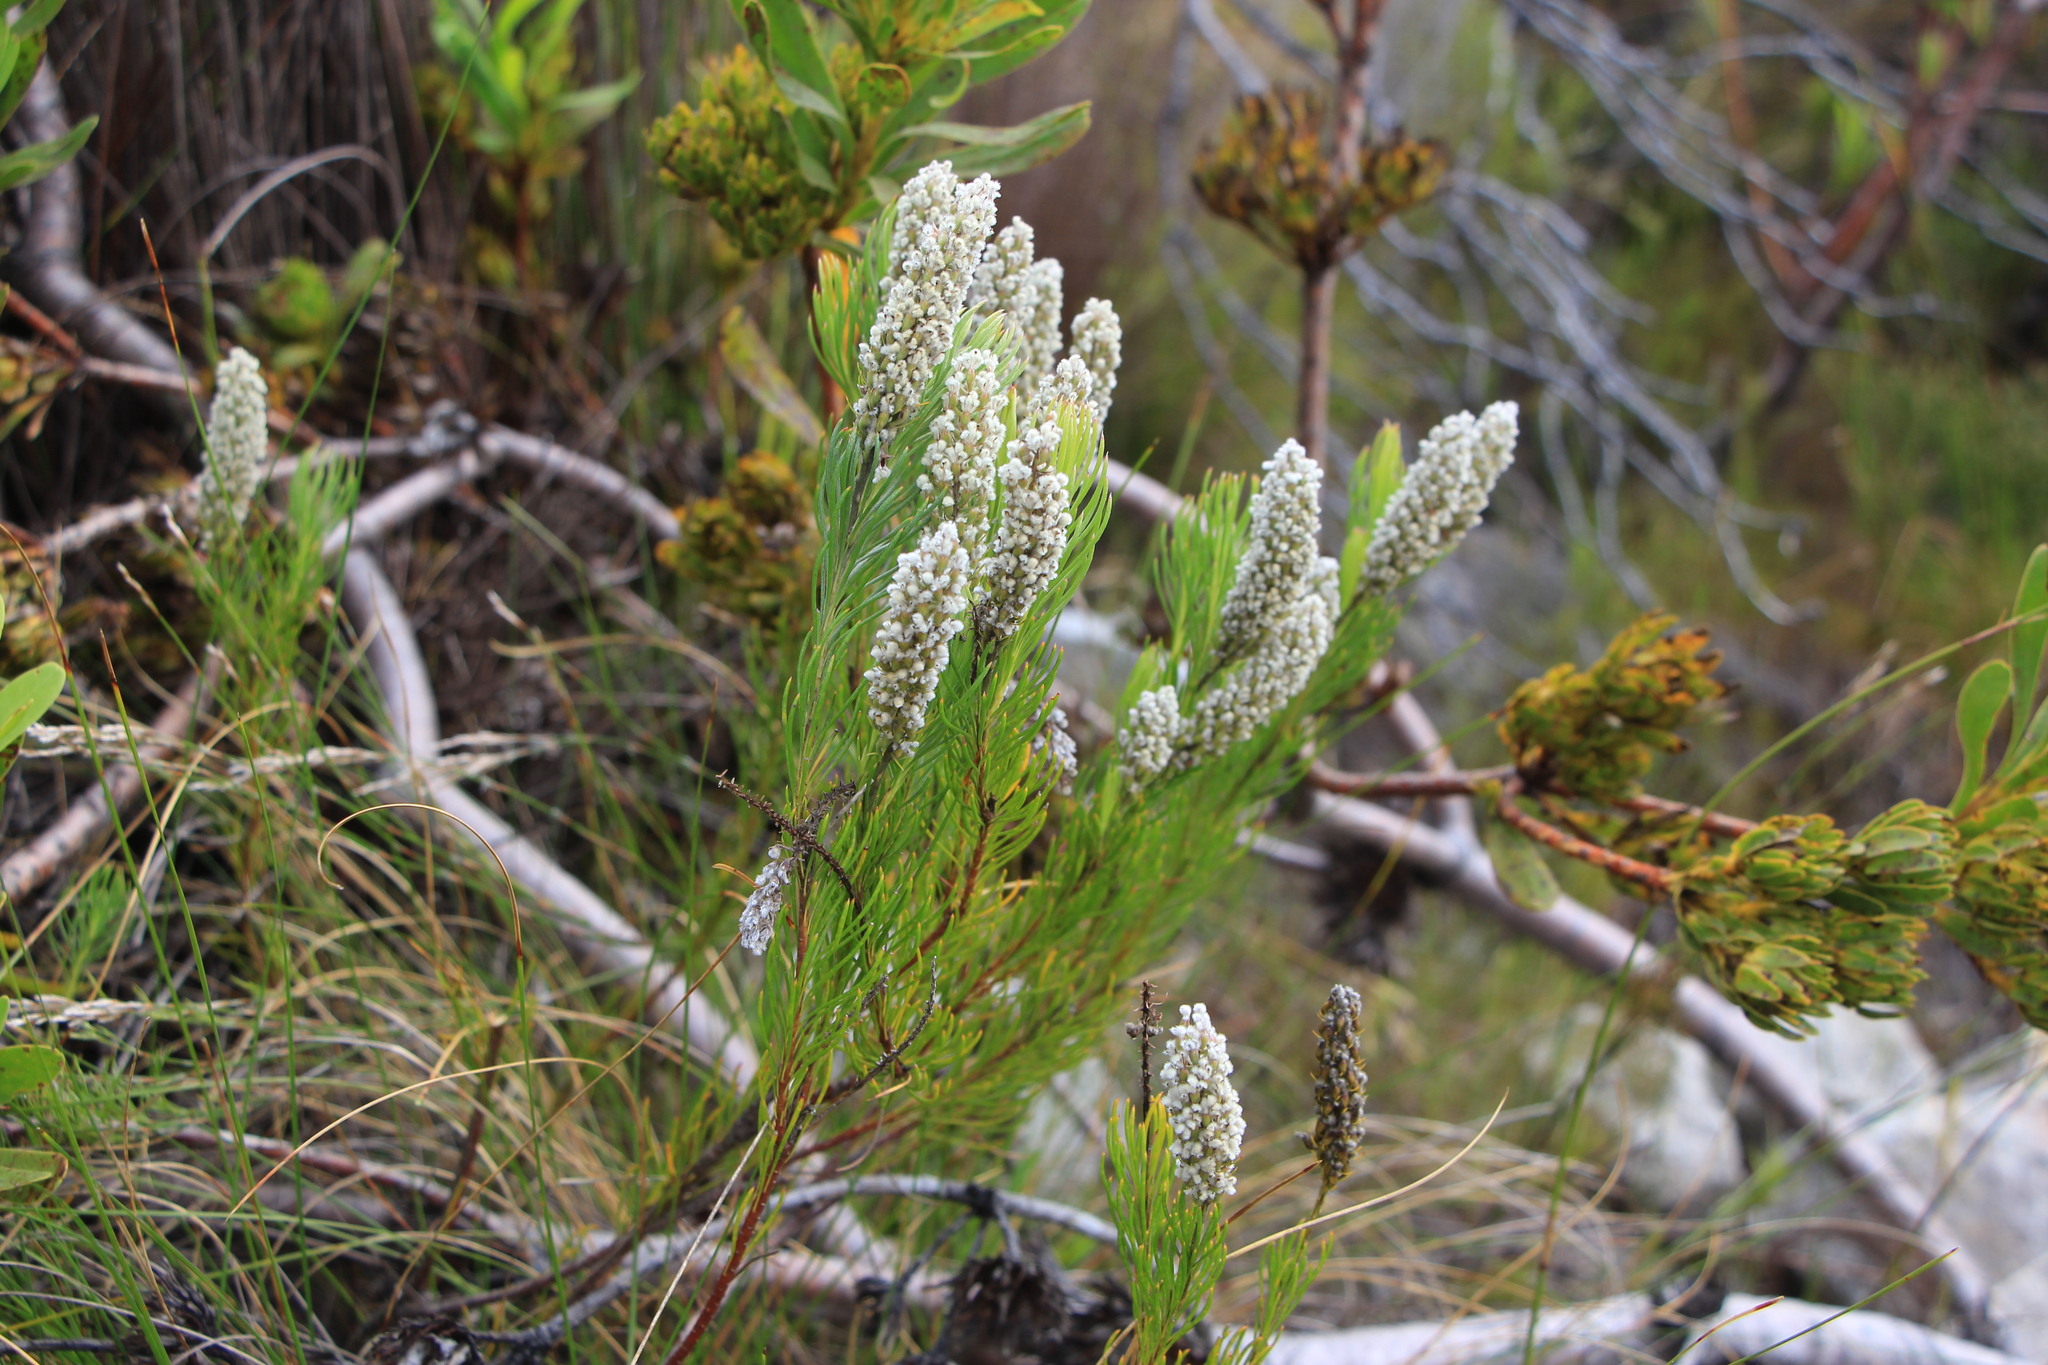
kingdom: Plantae
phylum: Tracheophyta
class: Magnoliopsida
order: Proteales
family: Proteaceae
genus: Spatalla
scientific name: Spatalla curvifolia
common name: White-stalked spoon
